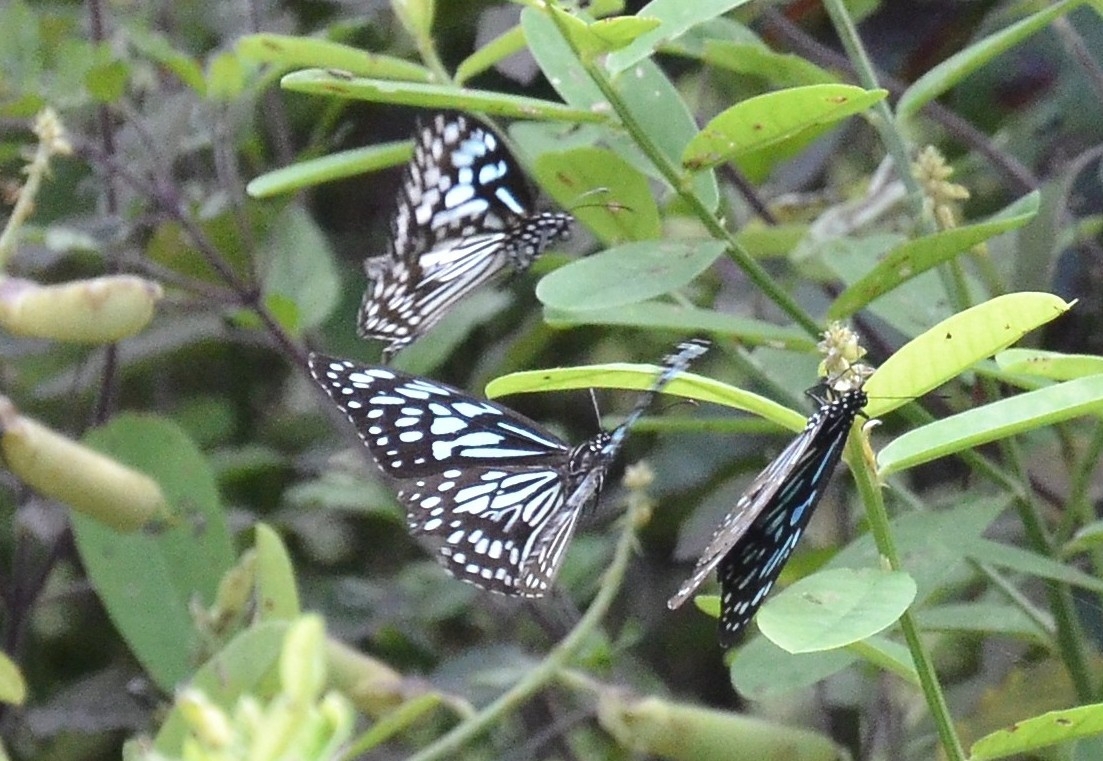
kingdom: Animalia
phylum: Arthropoda
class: Insecta
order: Lepidoptera
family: Nymphalidae
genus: Tirumala
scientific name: Tirumala septentrionis
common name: Dark blue tiger butterfly
